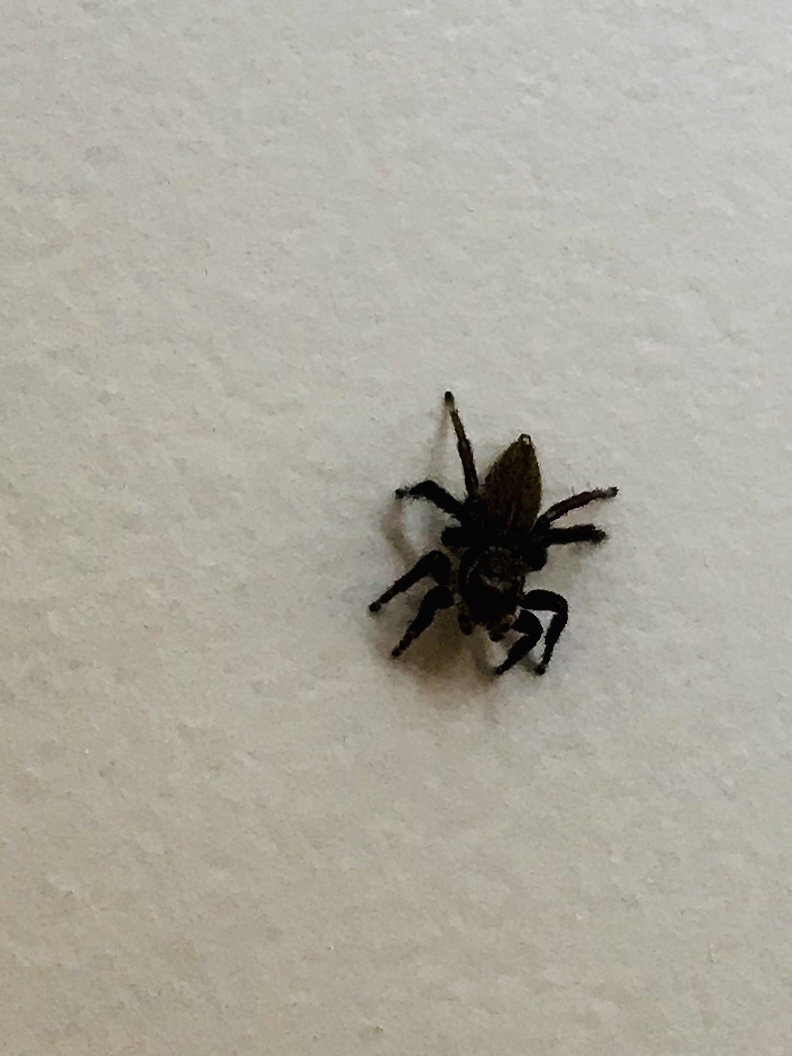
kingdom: Animalia
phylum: Arthropoda
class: Arachnida
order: Araneae
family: Salticidae
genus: Maratus
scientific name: Maratus griseus
